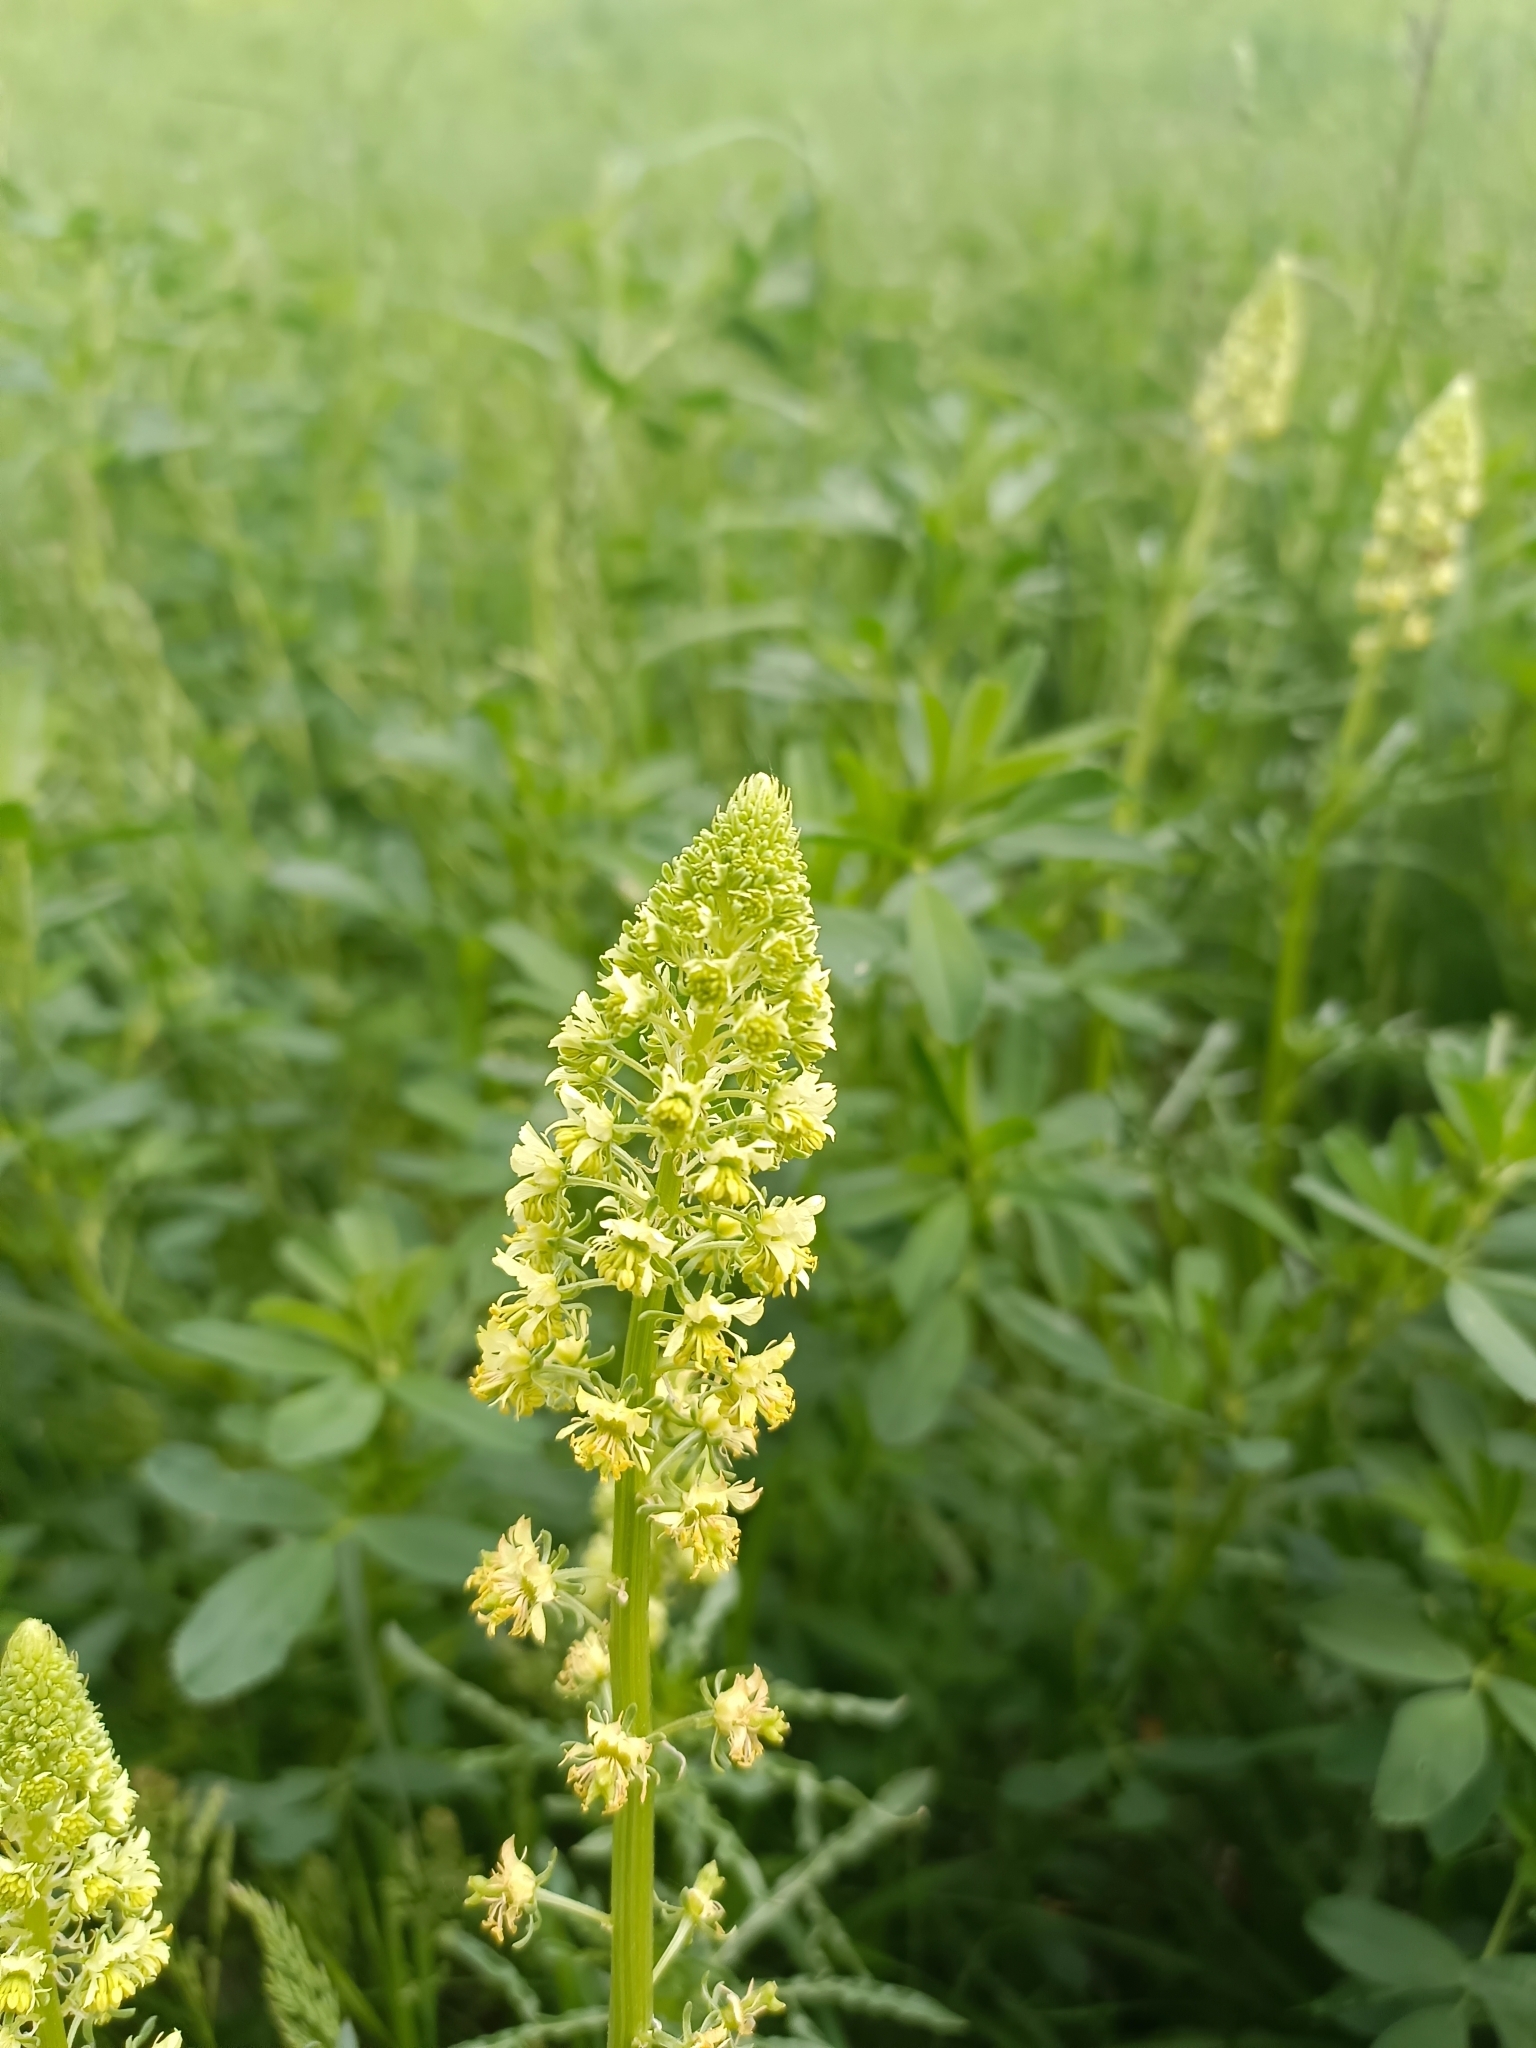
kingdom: Plantae
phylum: Tracheophyta
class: Magnoliopsida
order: Brassicales
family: Resedaceae
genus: Reseda
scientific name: Reseda lutea
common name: Wild mignonette
